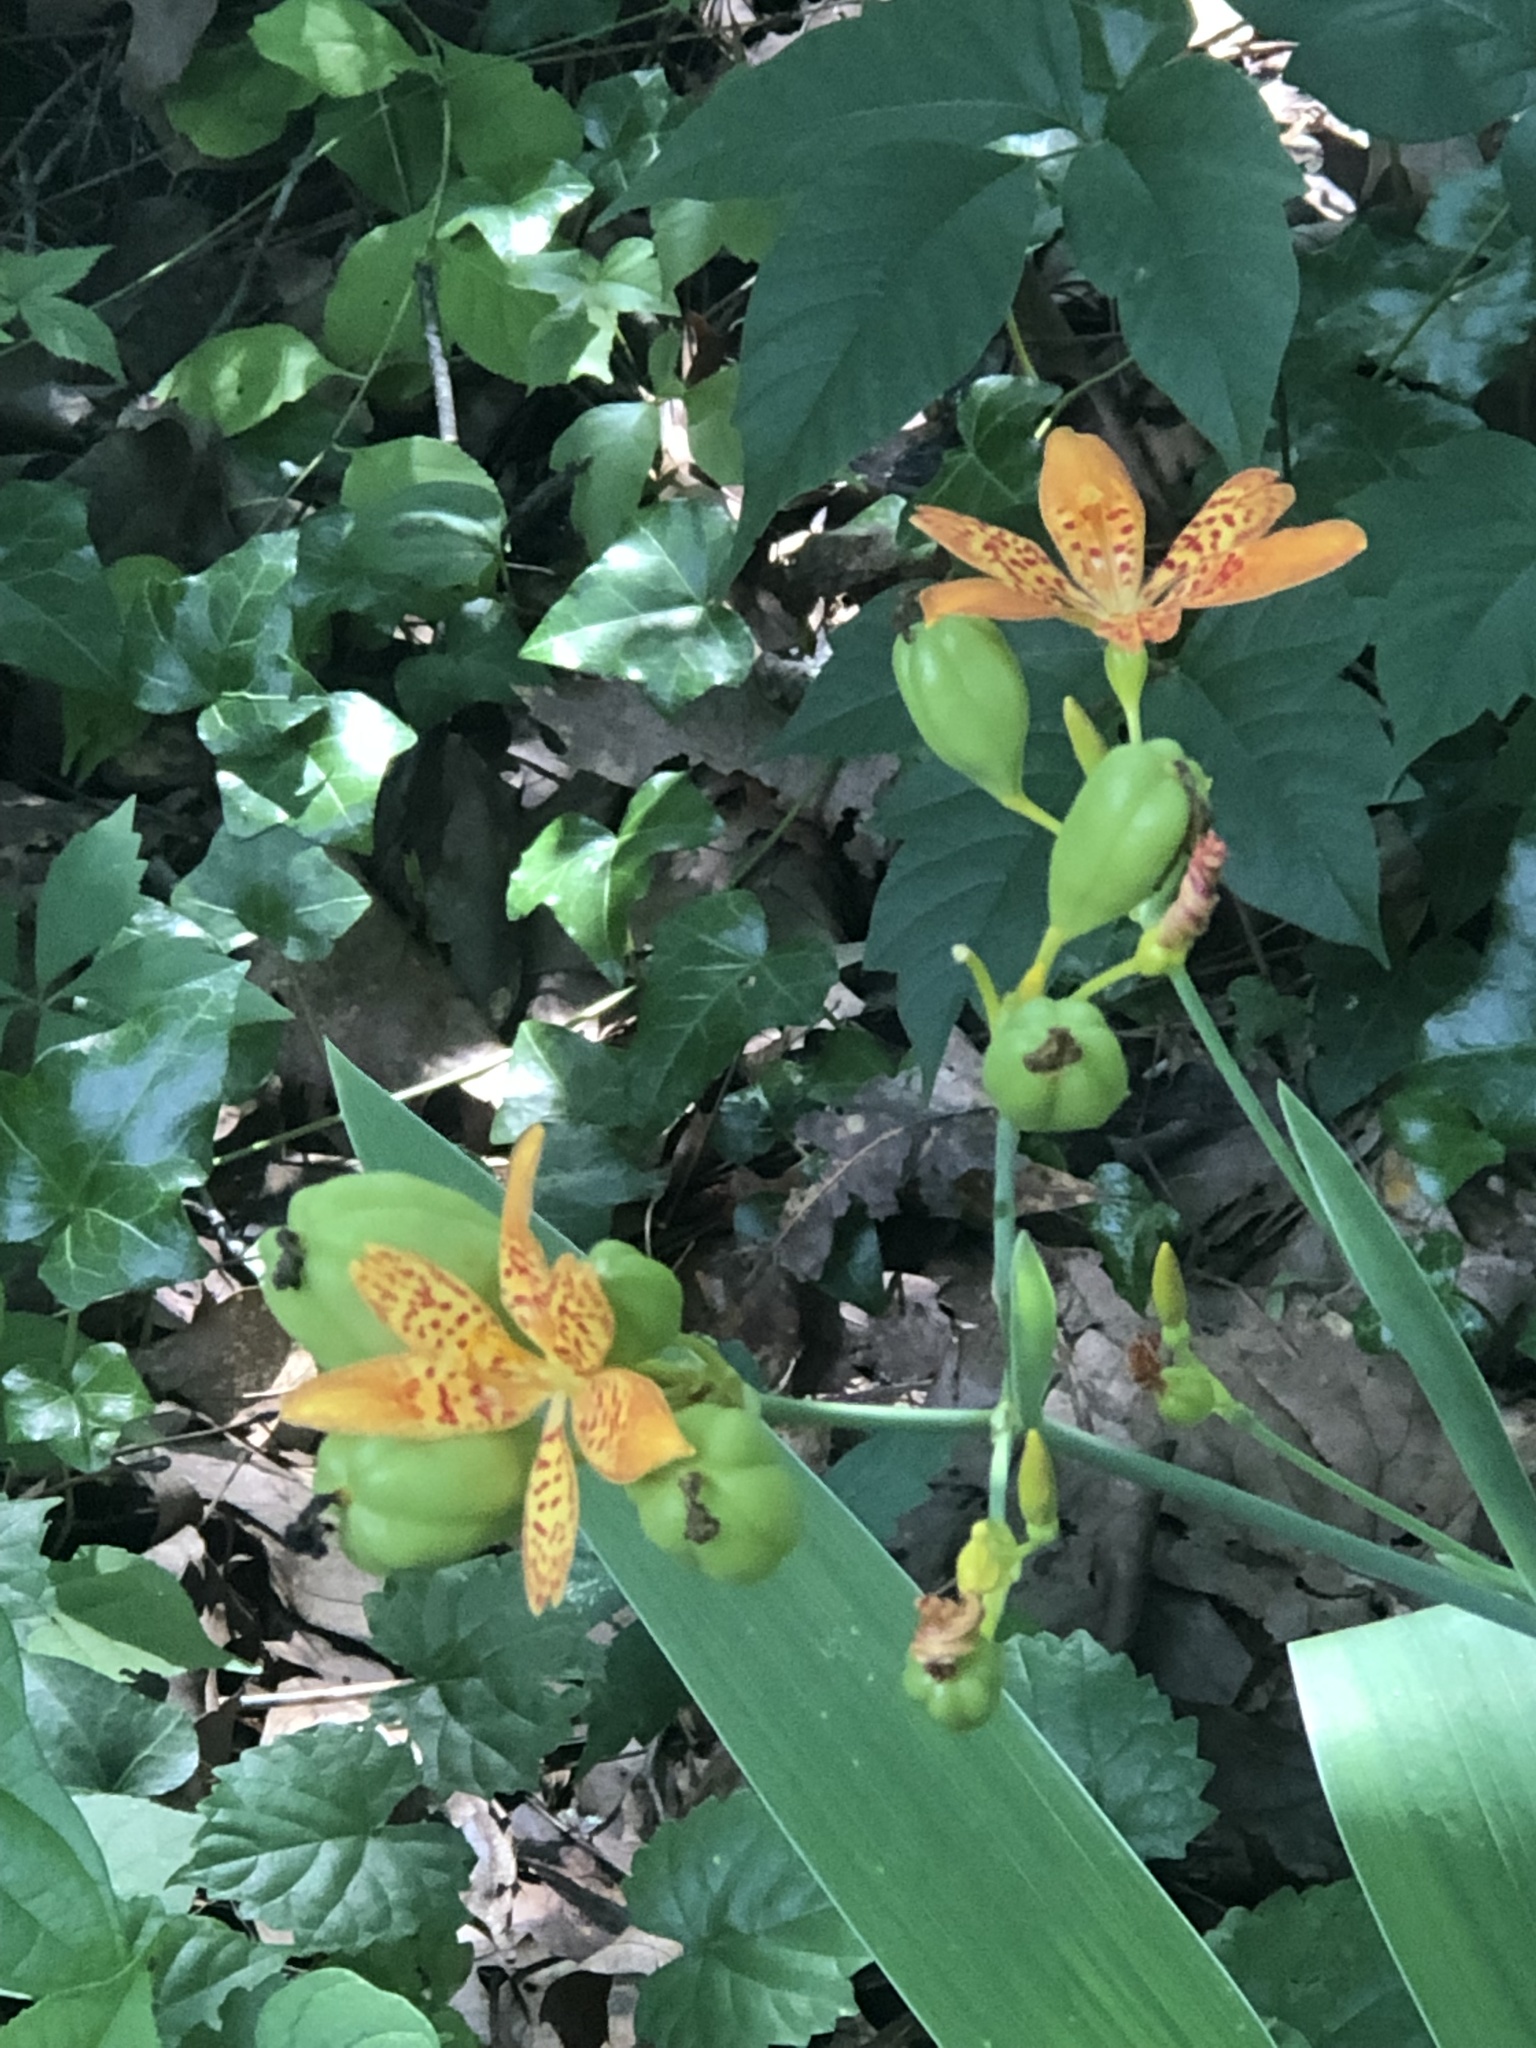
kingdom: Plantae
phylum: Tracheophyta
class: Liliopsida
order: Asparagales
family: Iridaceae
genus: Iris
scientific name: Iris domestica
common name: Belamcanda
